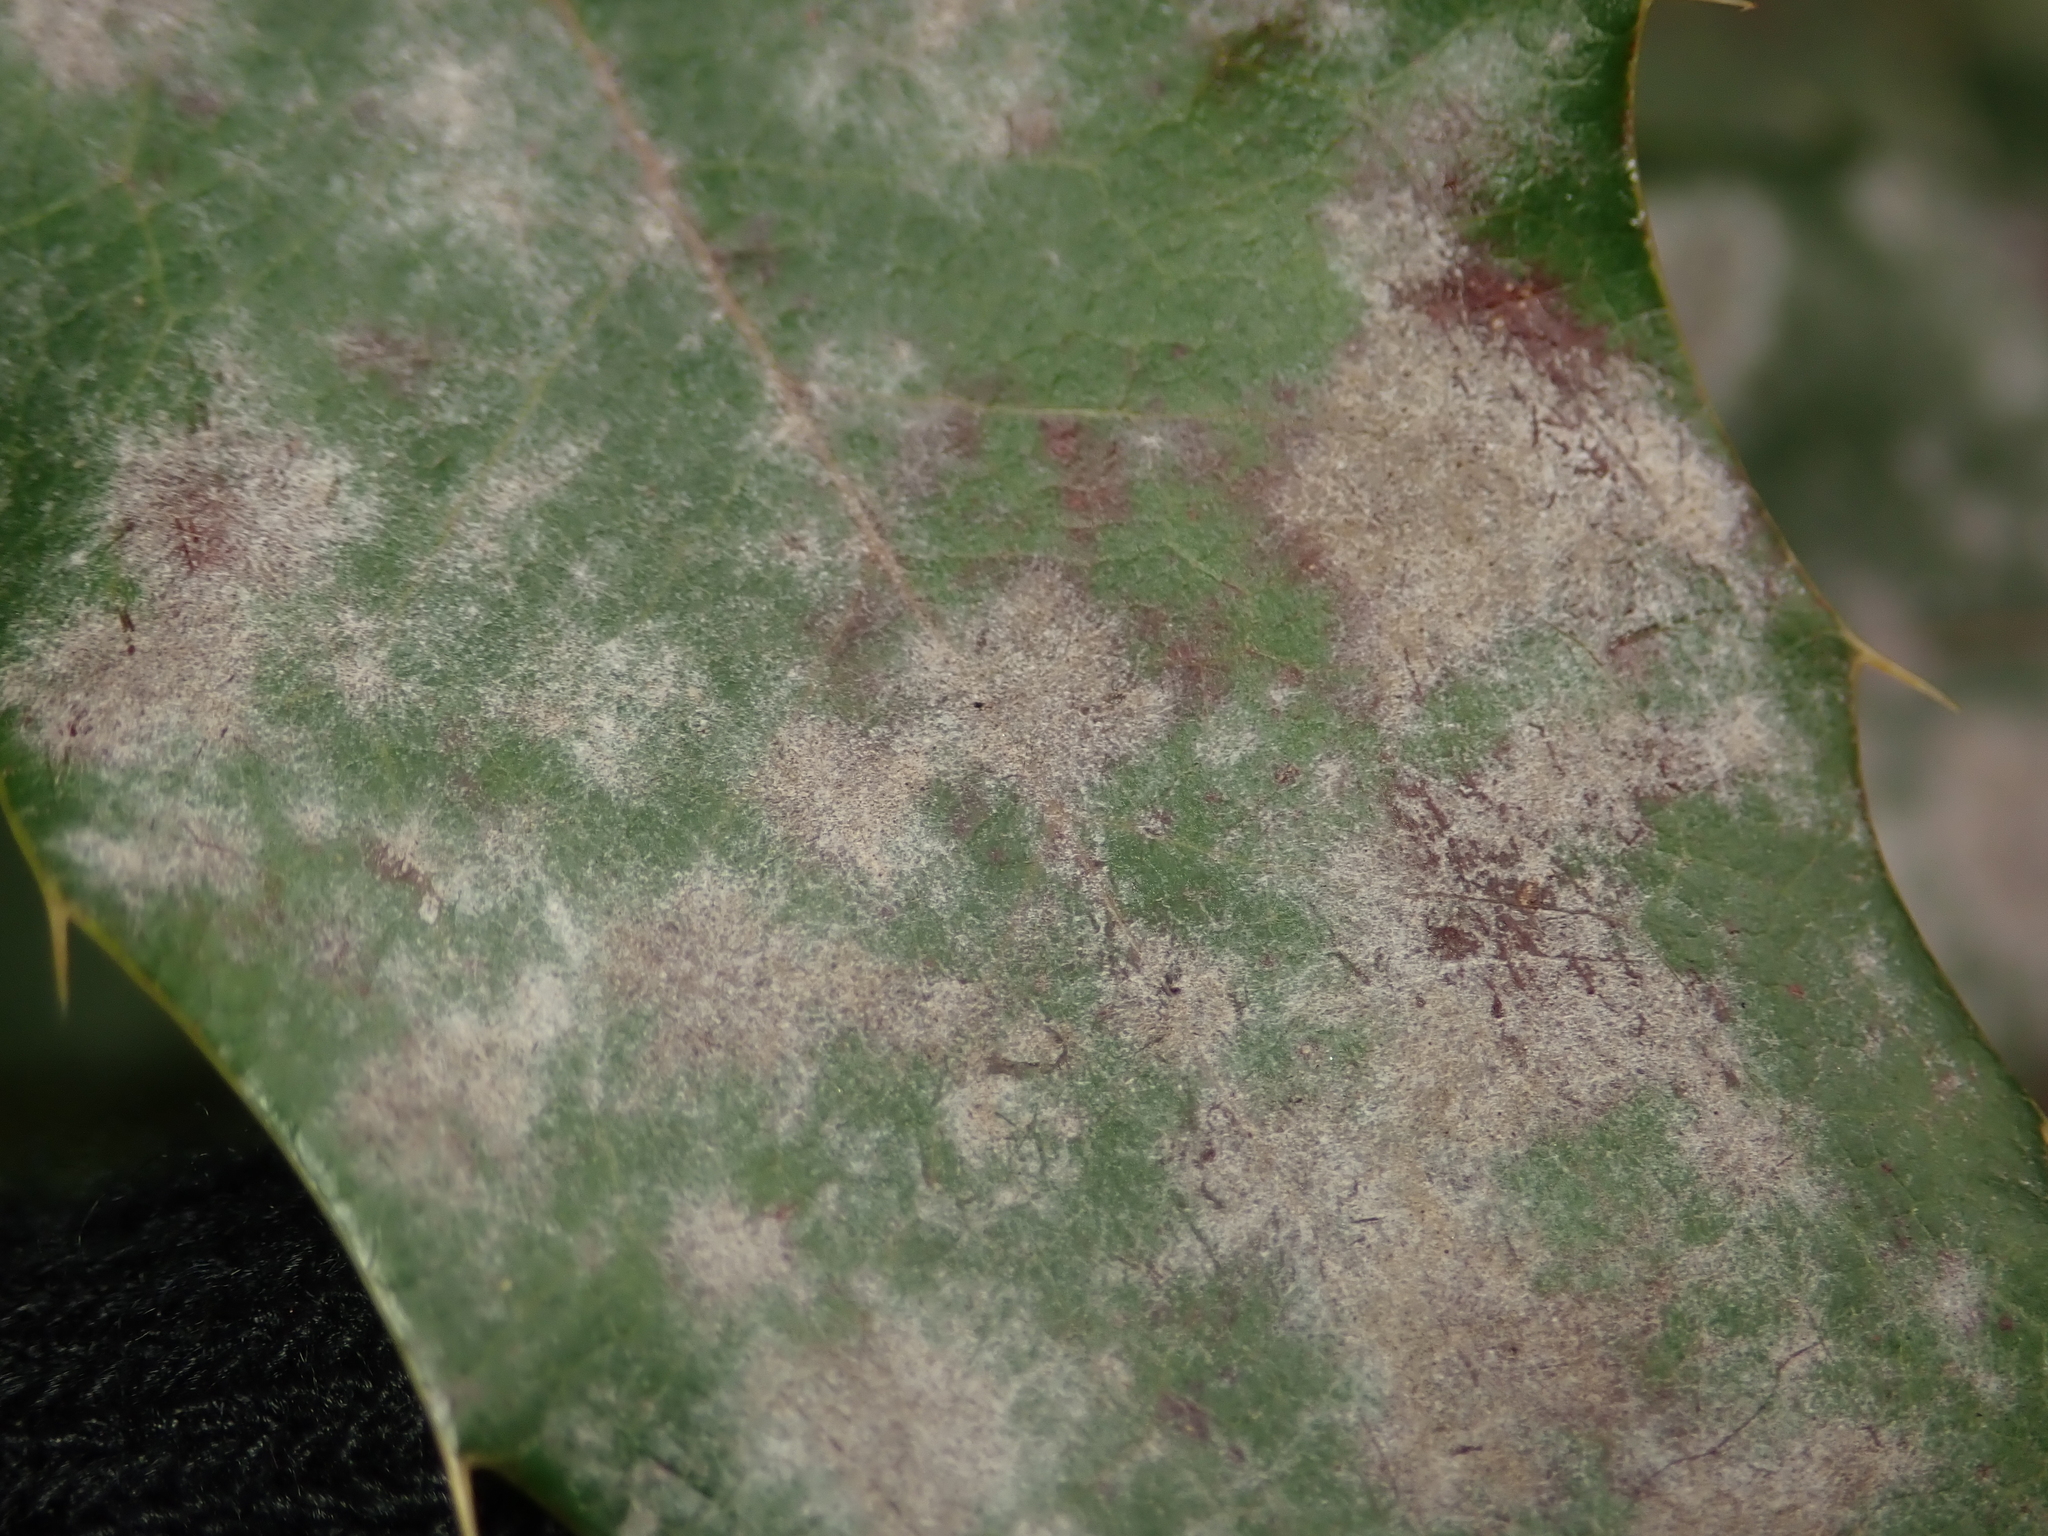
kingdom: Fungi
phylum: Ascomycota
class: Leotiomycetes
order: Helotiales
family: Erysiphaceae
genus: Erysiphe
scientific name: Erysiphe berberidis
